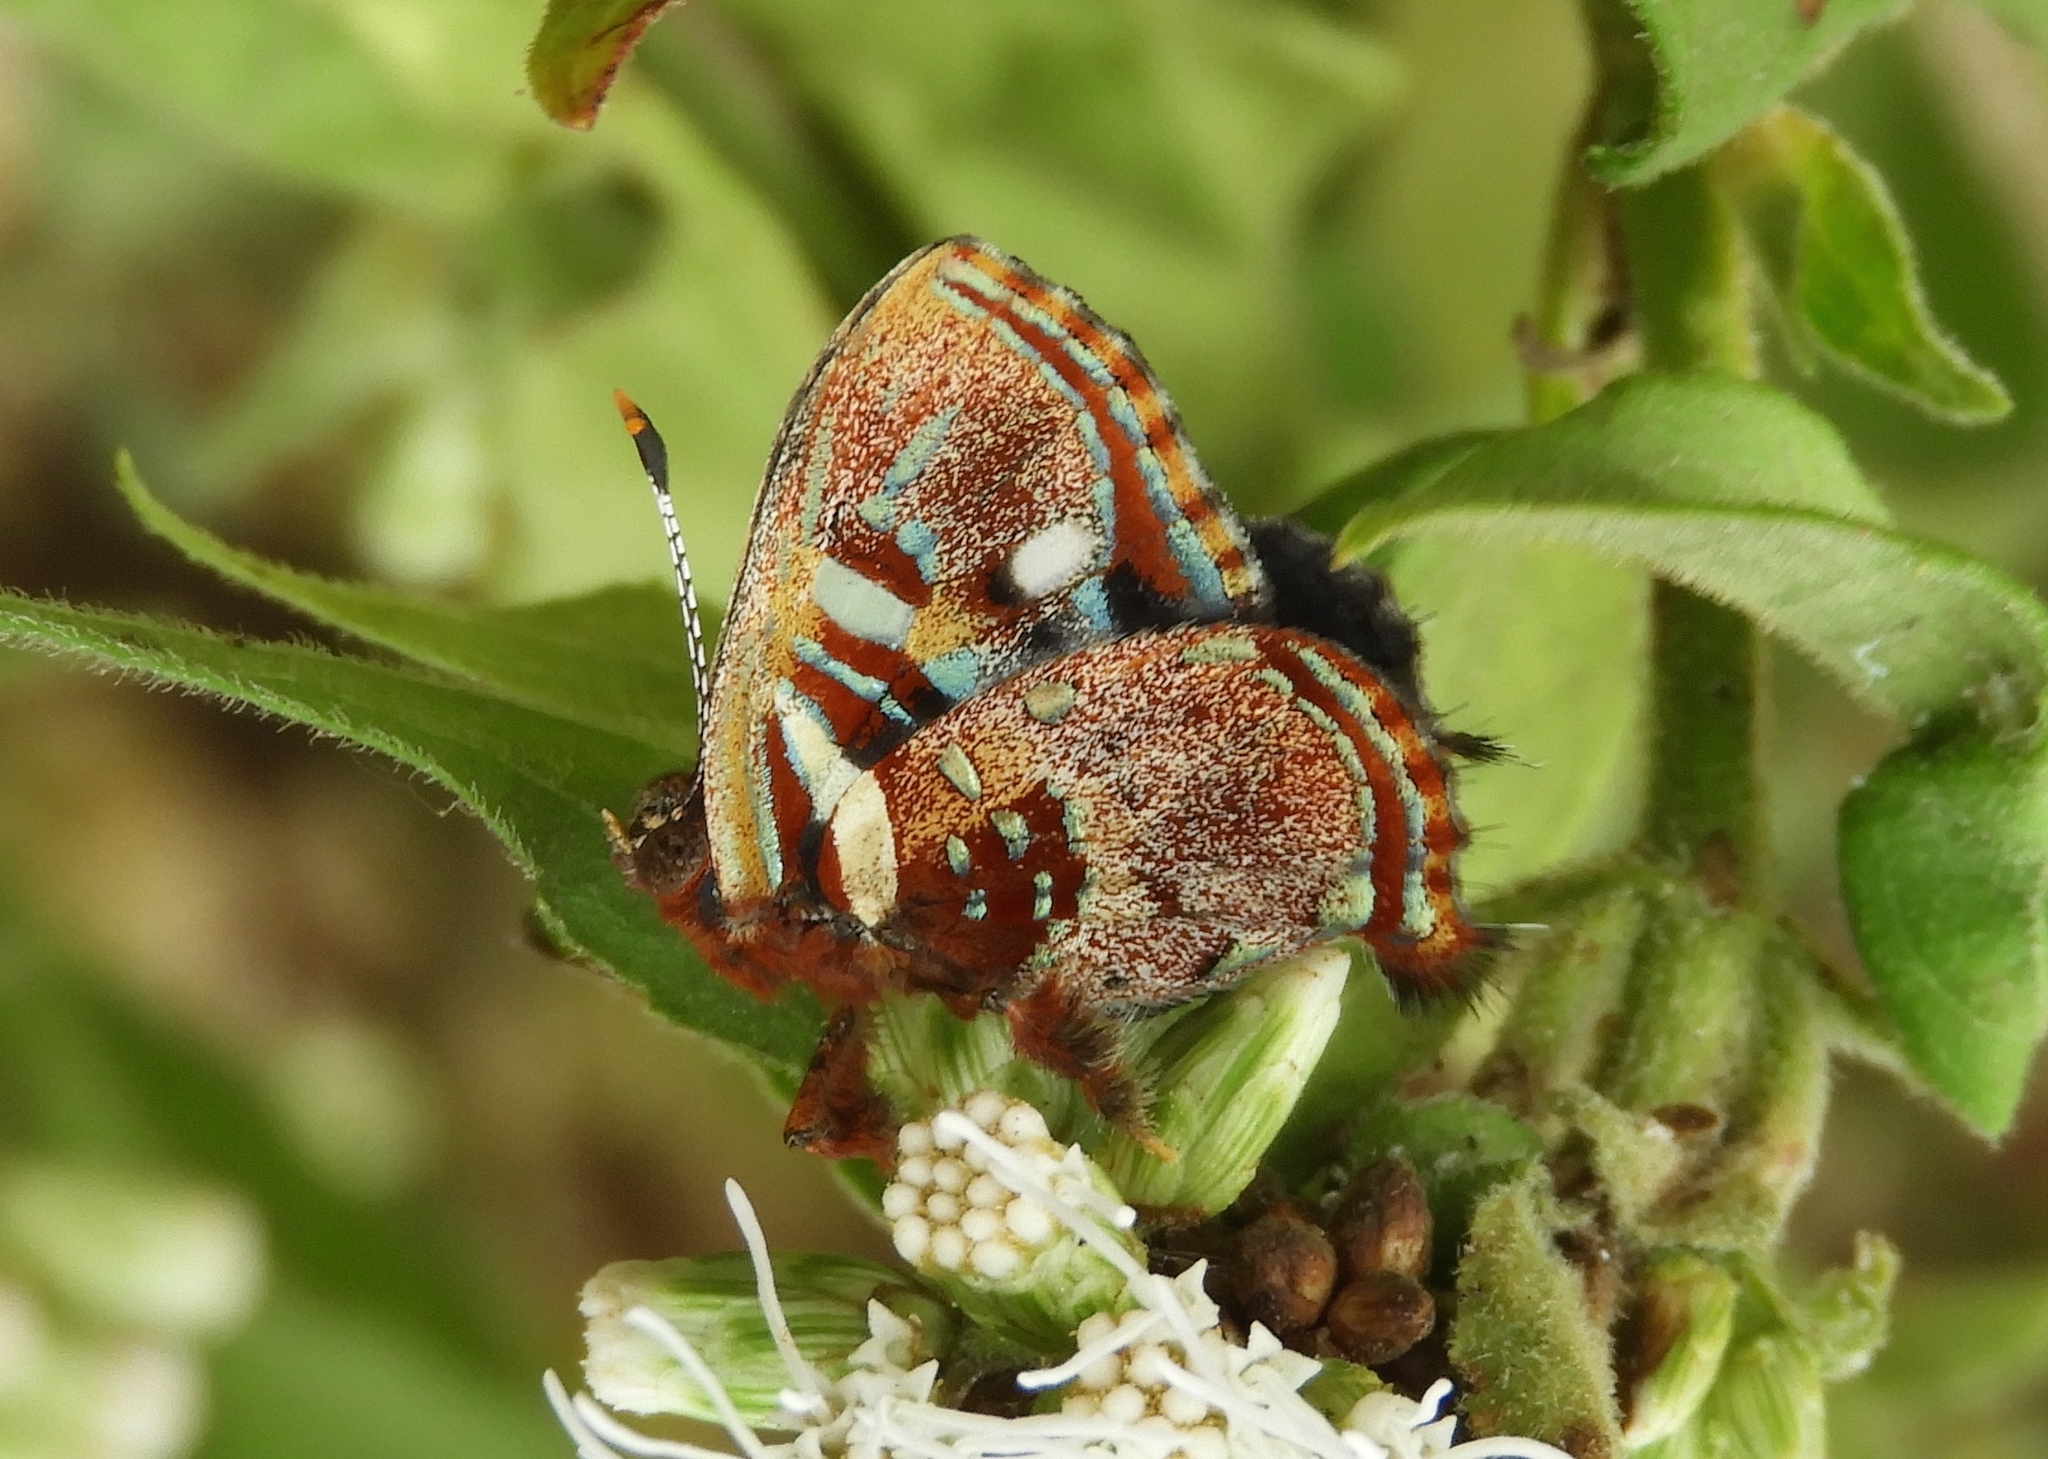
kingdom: Animalia
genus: Anteros
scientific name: Anteros carausius
